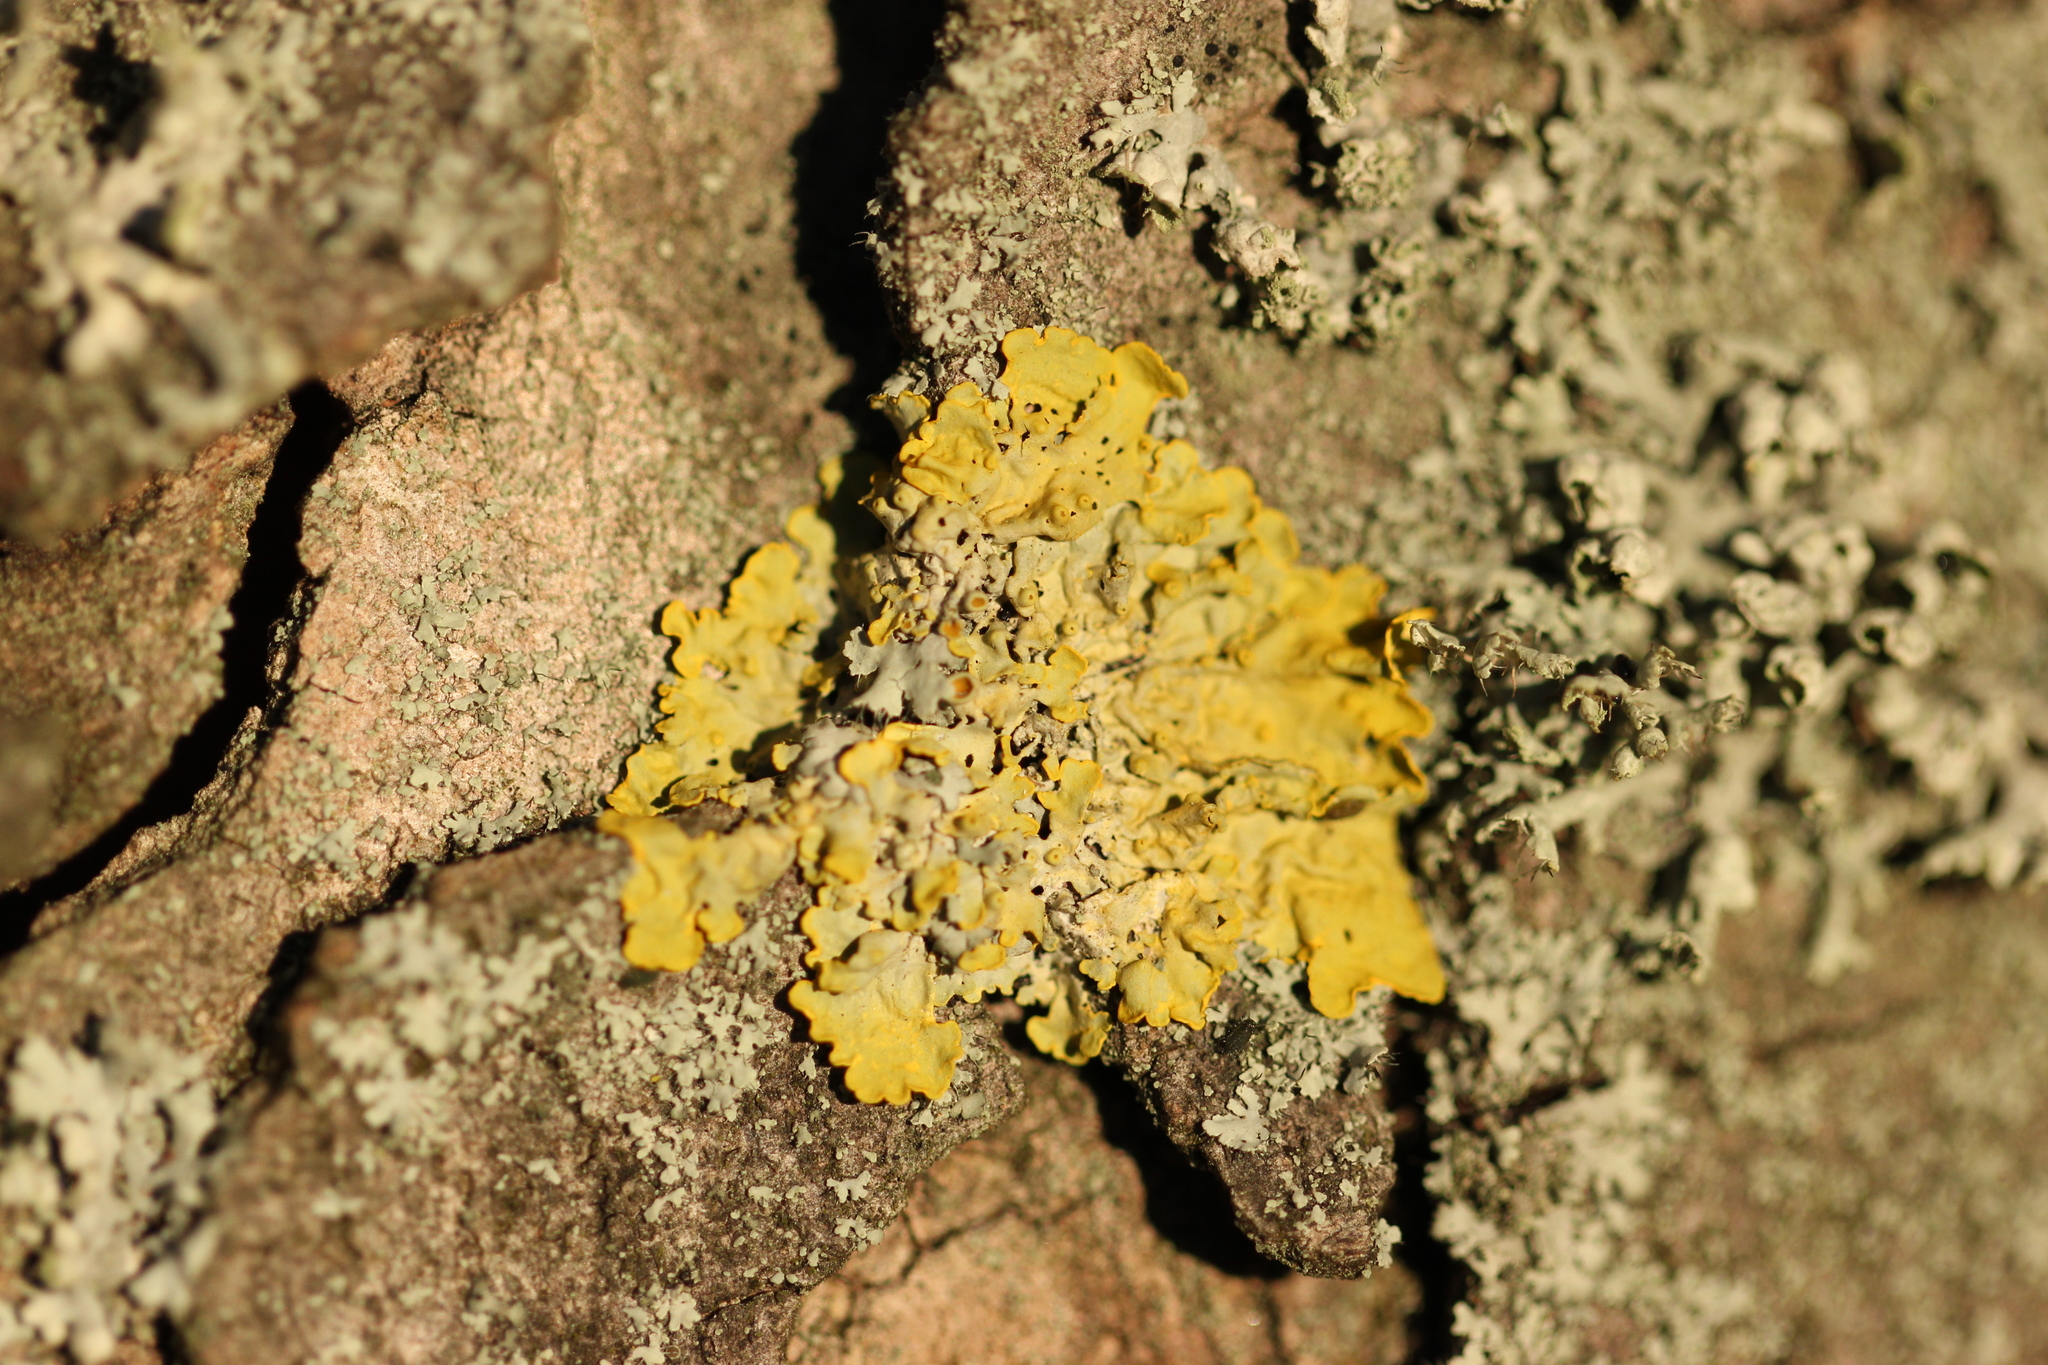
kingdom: Fungi
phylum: Ascomycota
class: Lecanoromycetes
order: Teloschistales
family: Teloschistaceae
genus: Xanthoria
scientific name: Xanthoria parietina
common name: Common orange lichen
